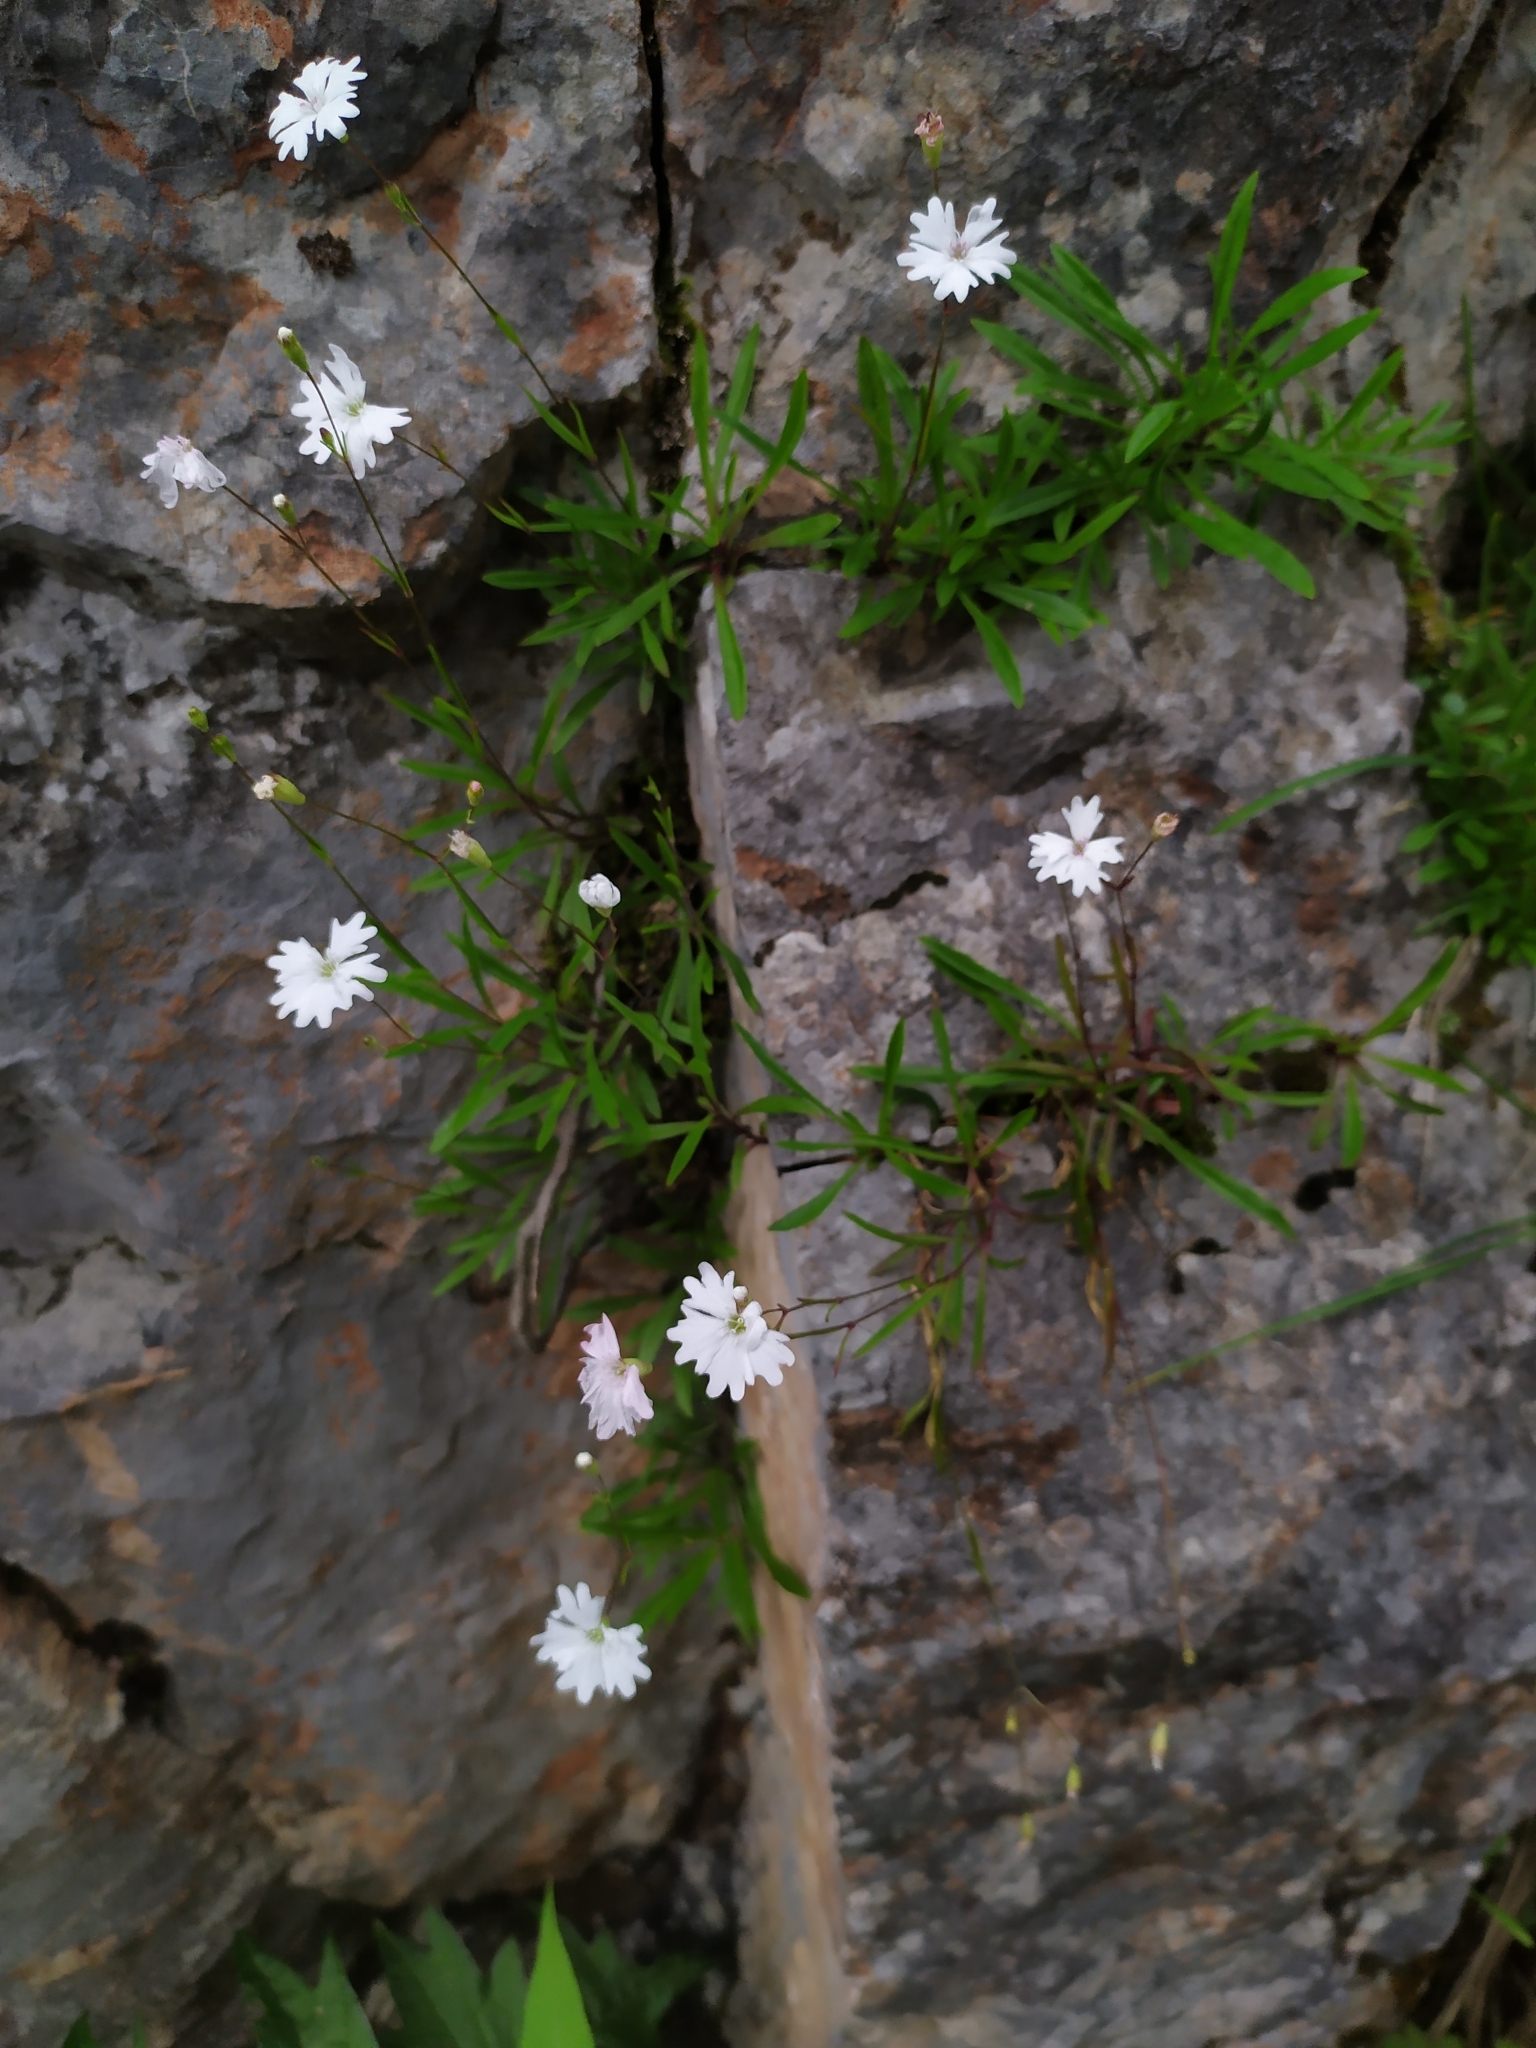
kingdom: Plantae
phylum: Tracheophyta
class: Magnoliopsida
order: Caryophyllales
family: Caryophyllaceae
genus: Heliosperma
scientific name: Heliosperma alpestre
